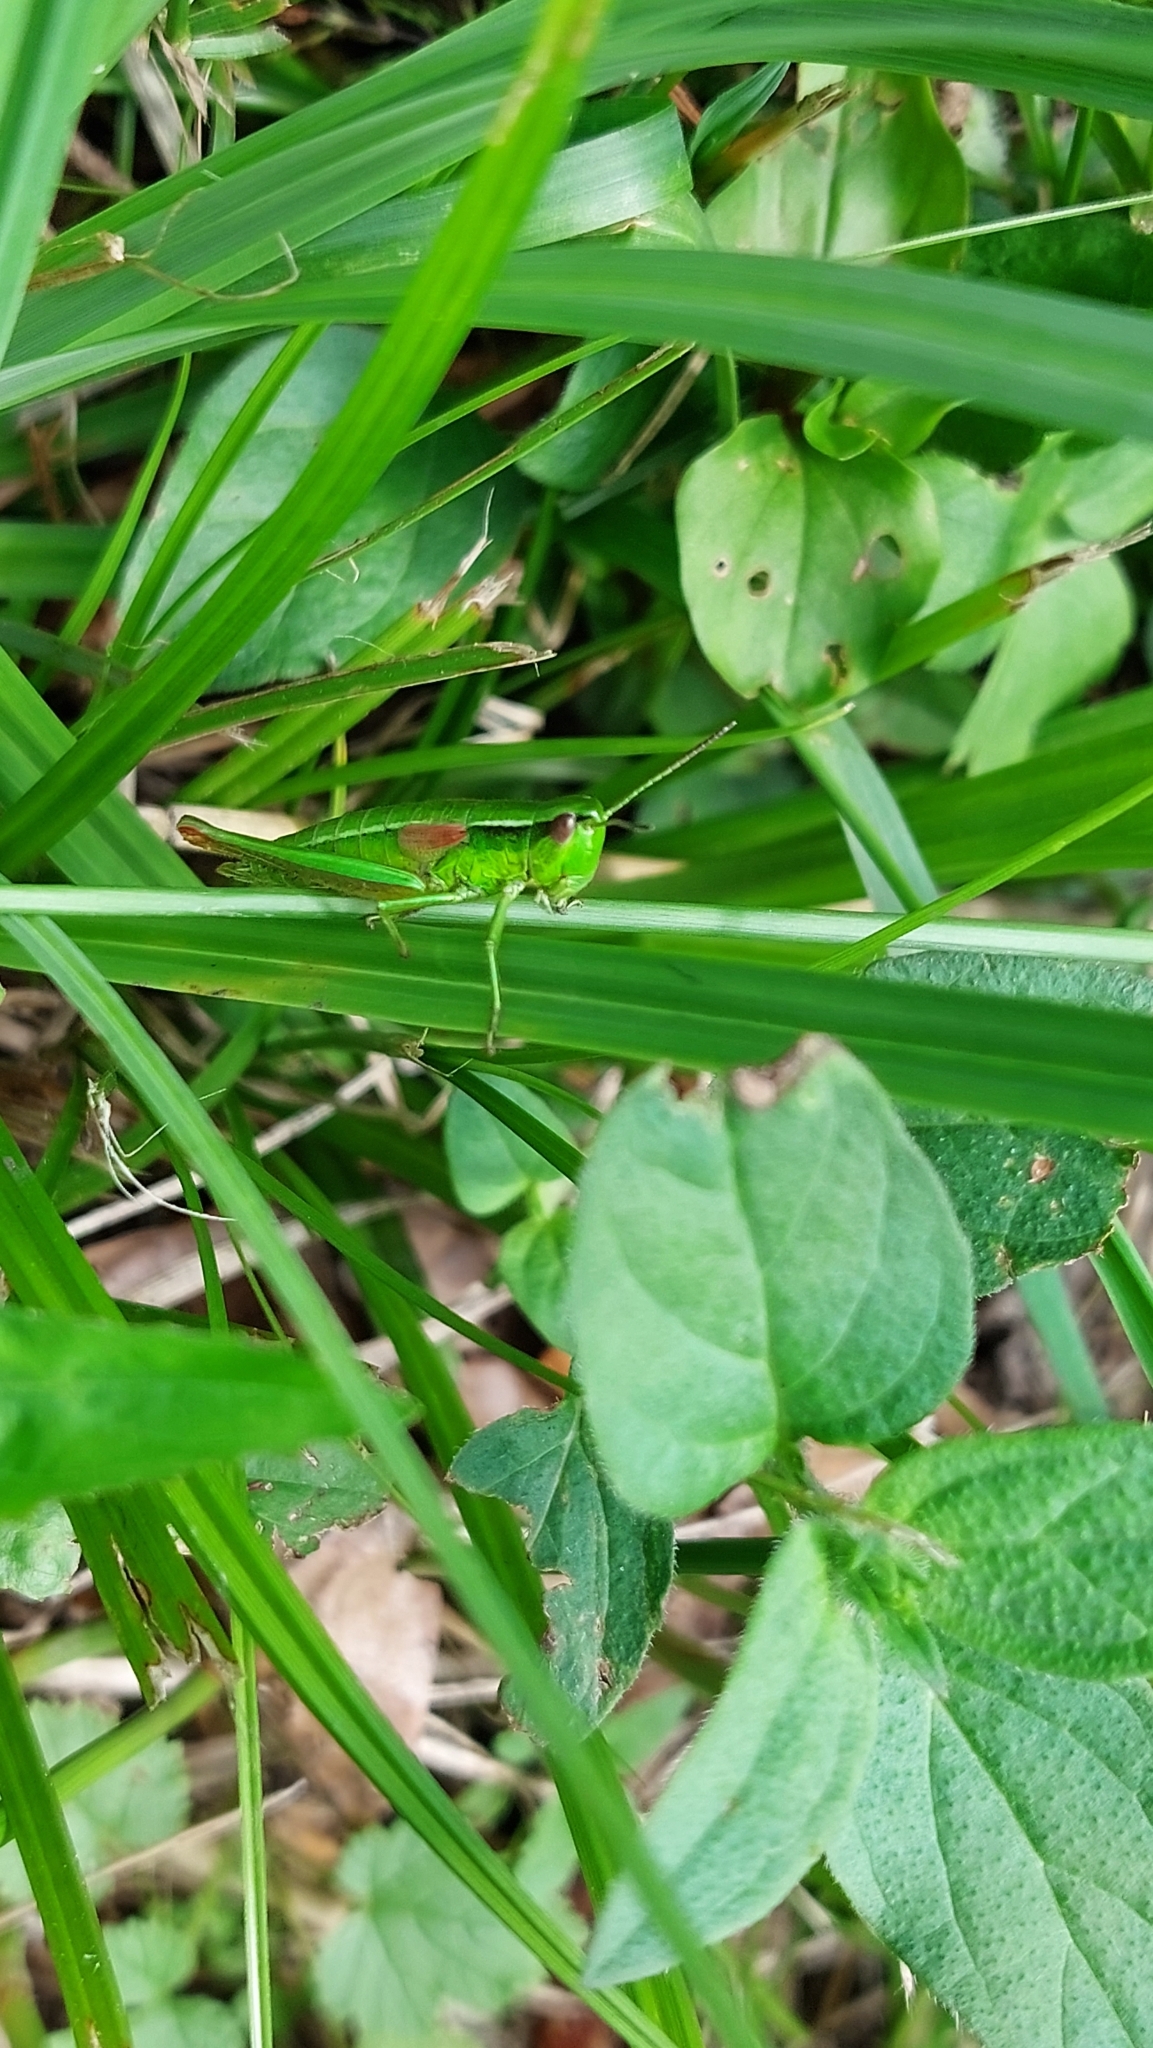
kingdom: Animalia
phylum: Arthropoda
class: Insecta
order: Orthoptera
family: Acrididae
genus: Euthystira
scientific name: Euthystira brachyptera
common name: Small gold grasshopper
